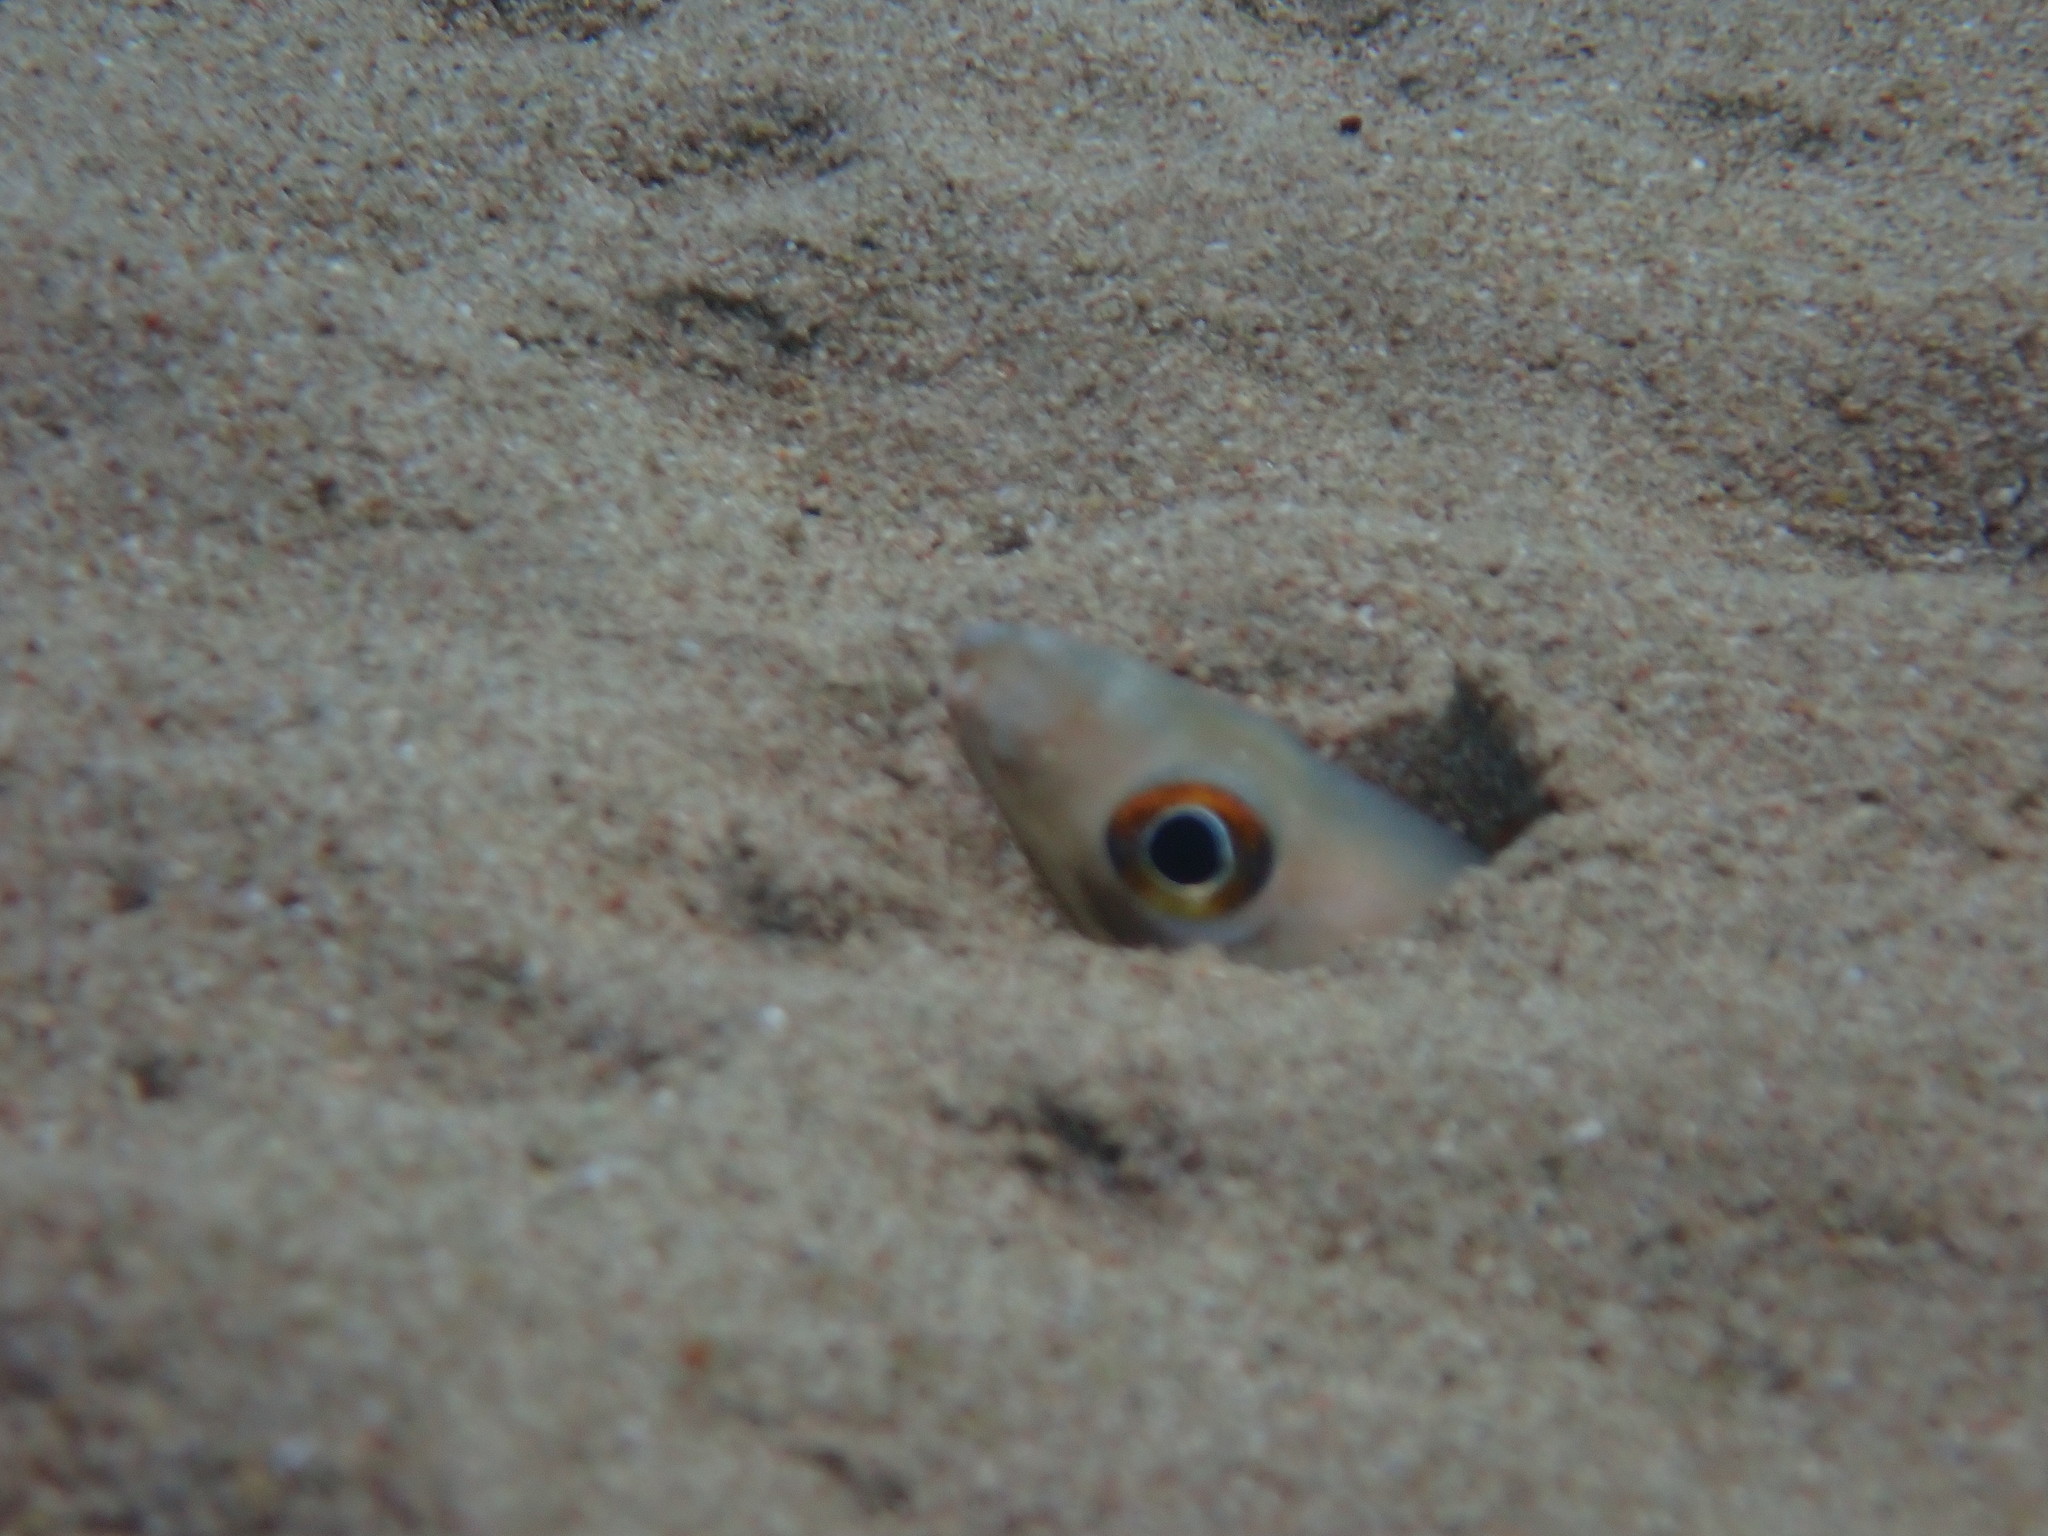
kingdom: Animalia
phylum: Chordata
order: Anguilliformes
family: Congridae
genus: Ariosoma
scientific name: Ariosoma balearicum
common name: Bandtooth conger
